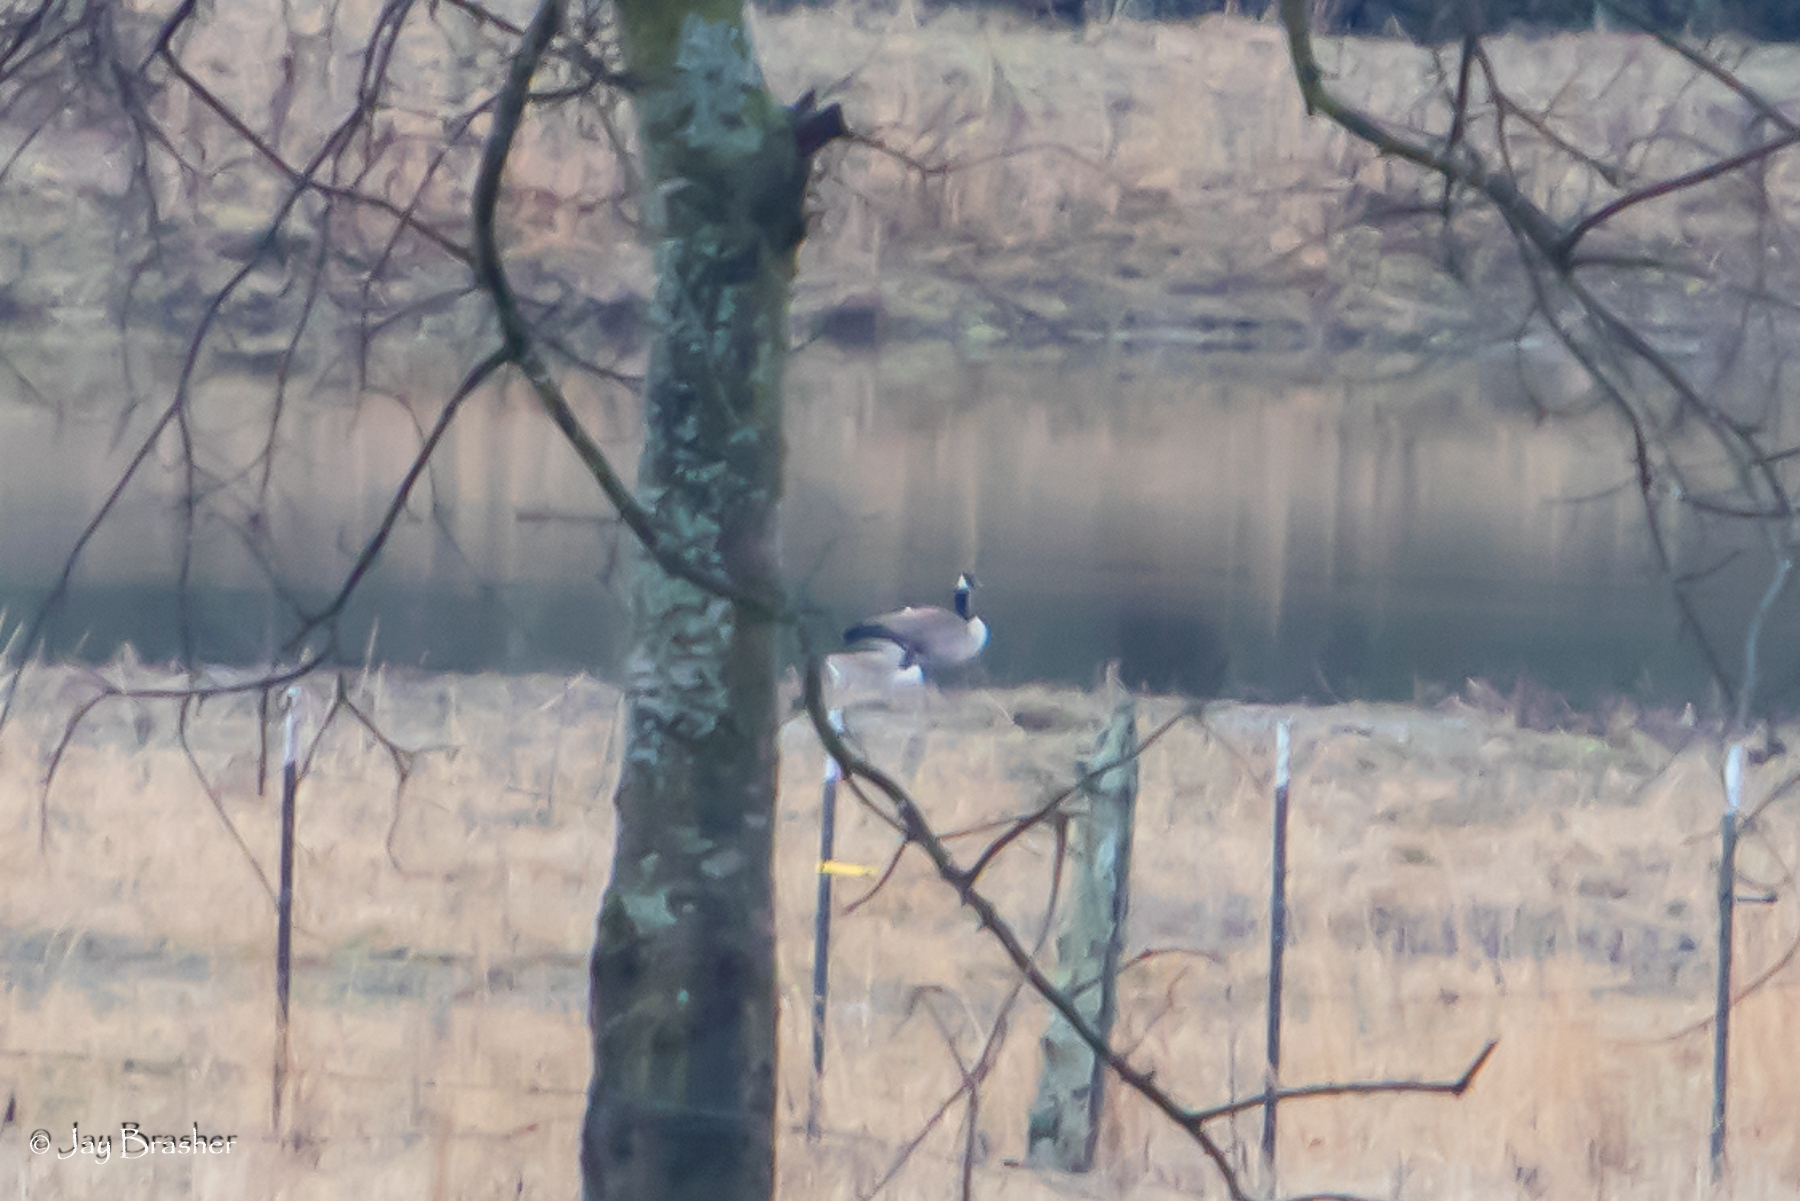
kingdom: Animalia
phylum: Chordata
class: Aves
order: Anseriformes
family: Anatidae
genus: Branta
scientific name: Branta canadensis
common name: Canada goose
